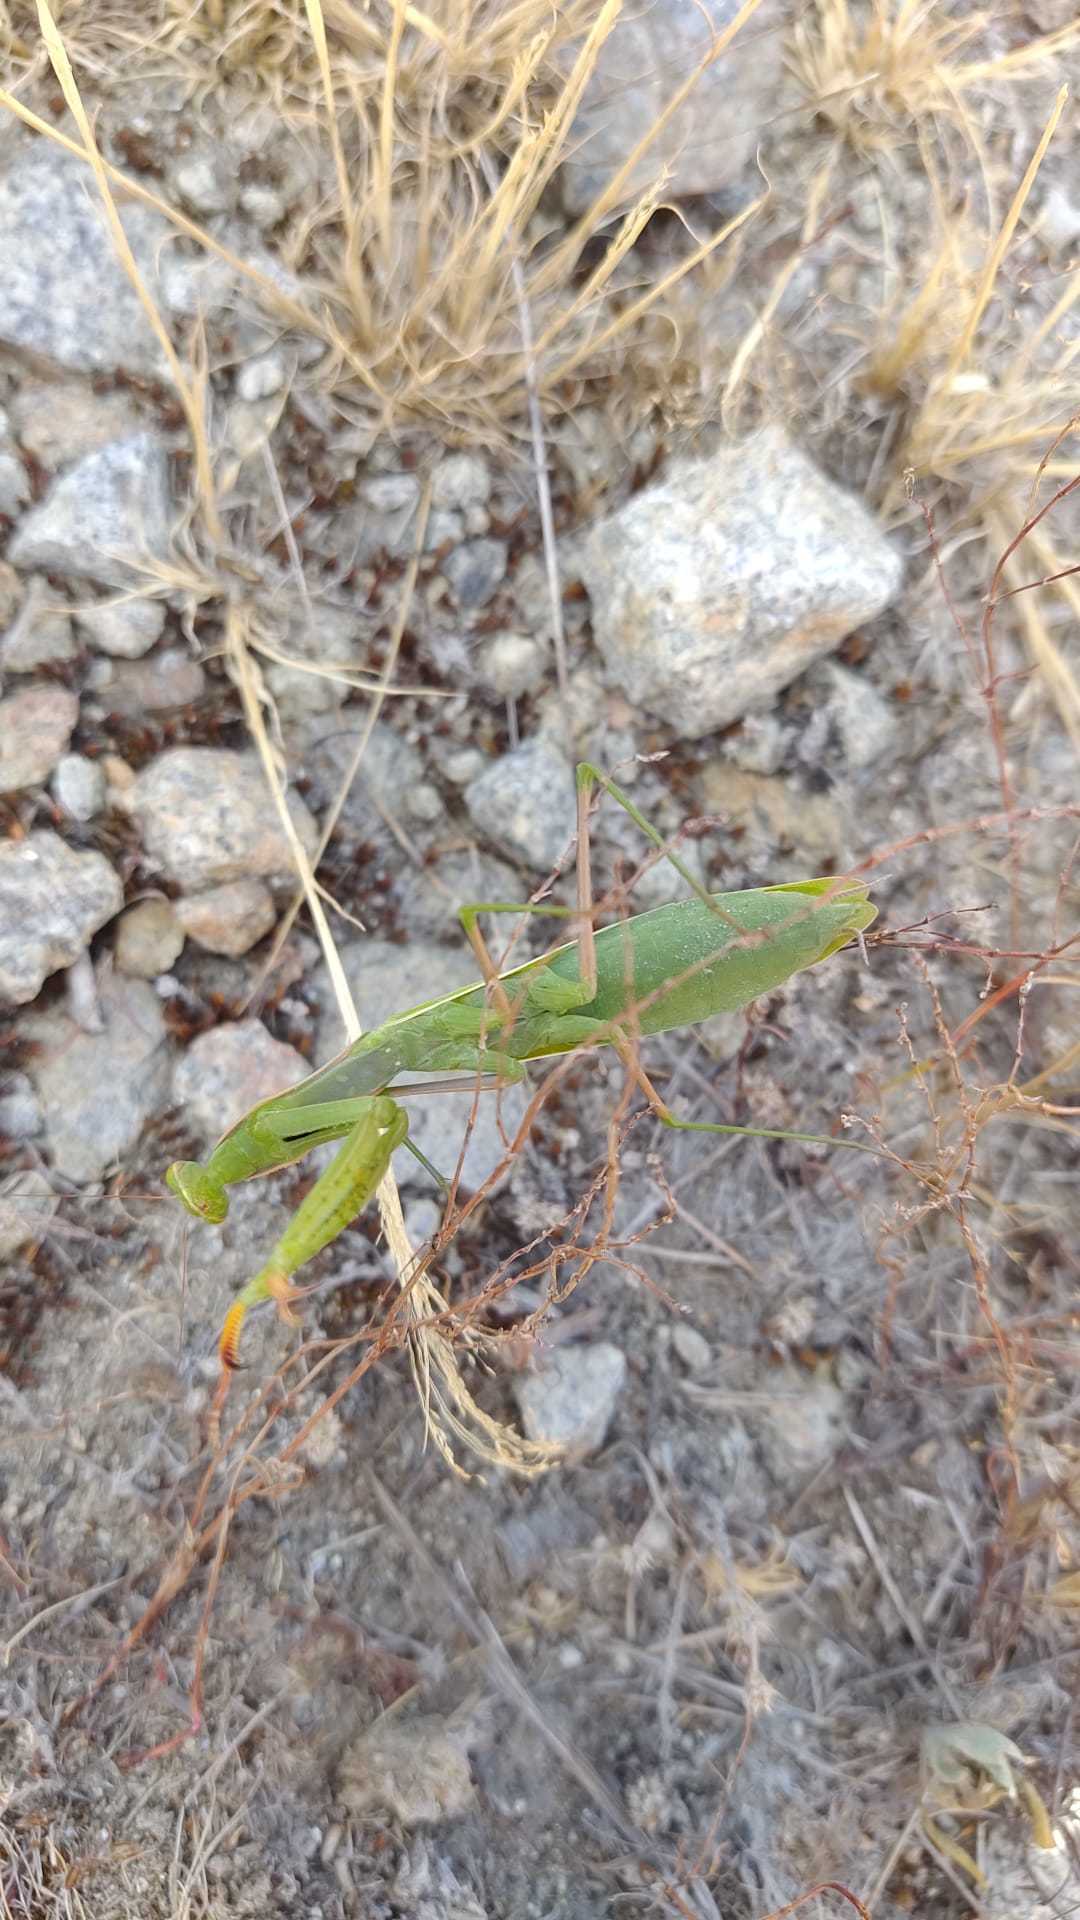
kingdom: Animalia
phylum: Arthropoda
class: Insecta
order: Mantodea
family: Mantidae
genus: Mantis
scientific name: Mantis religiosa
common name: Praying mantis
